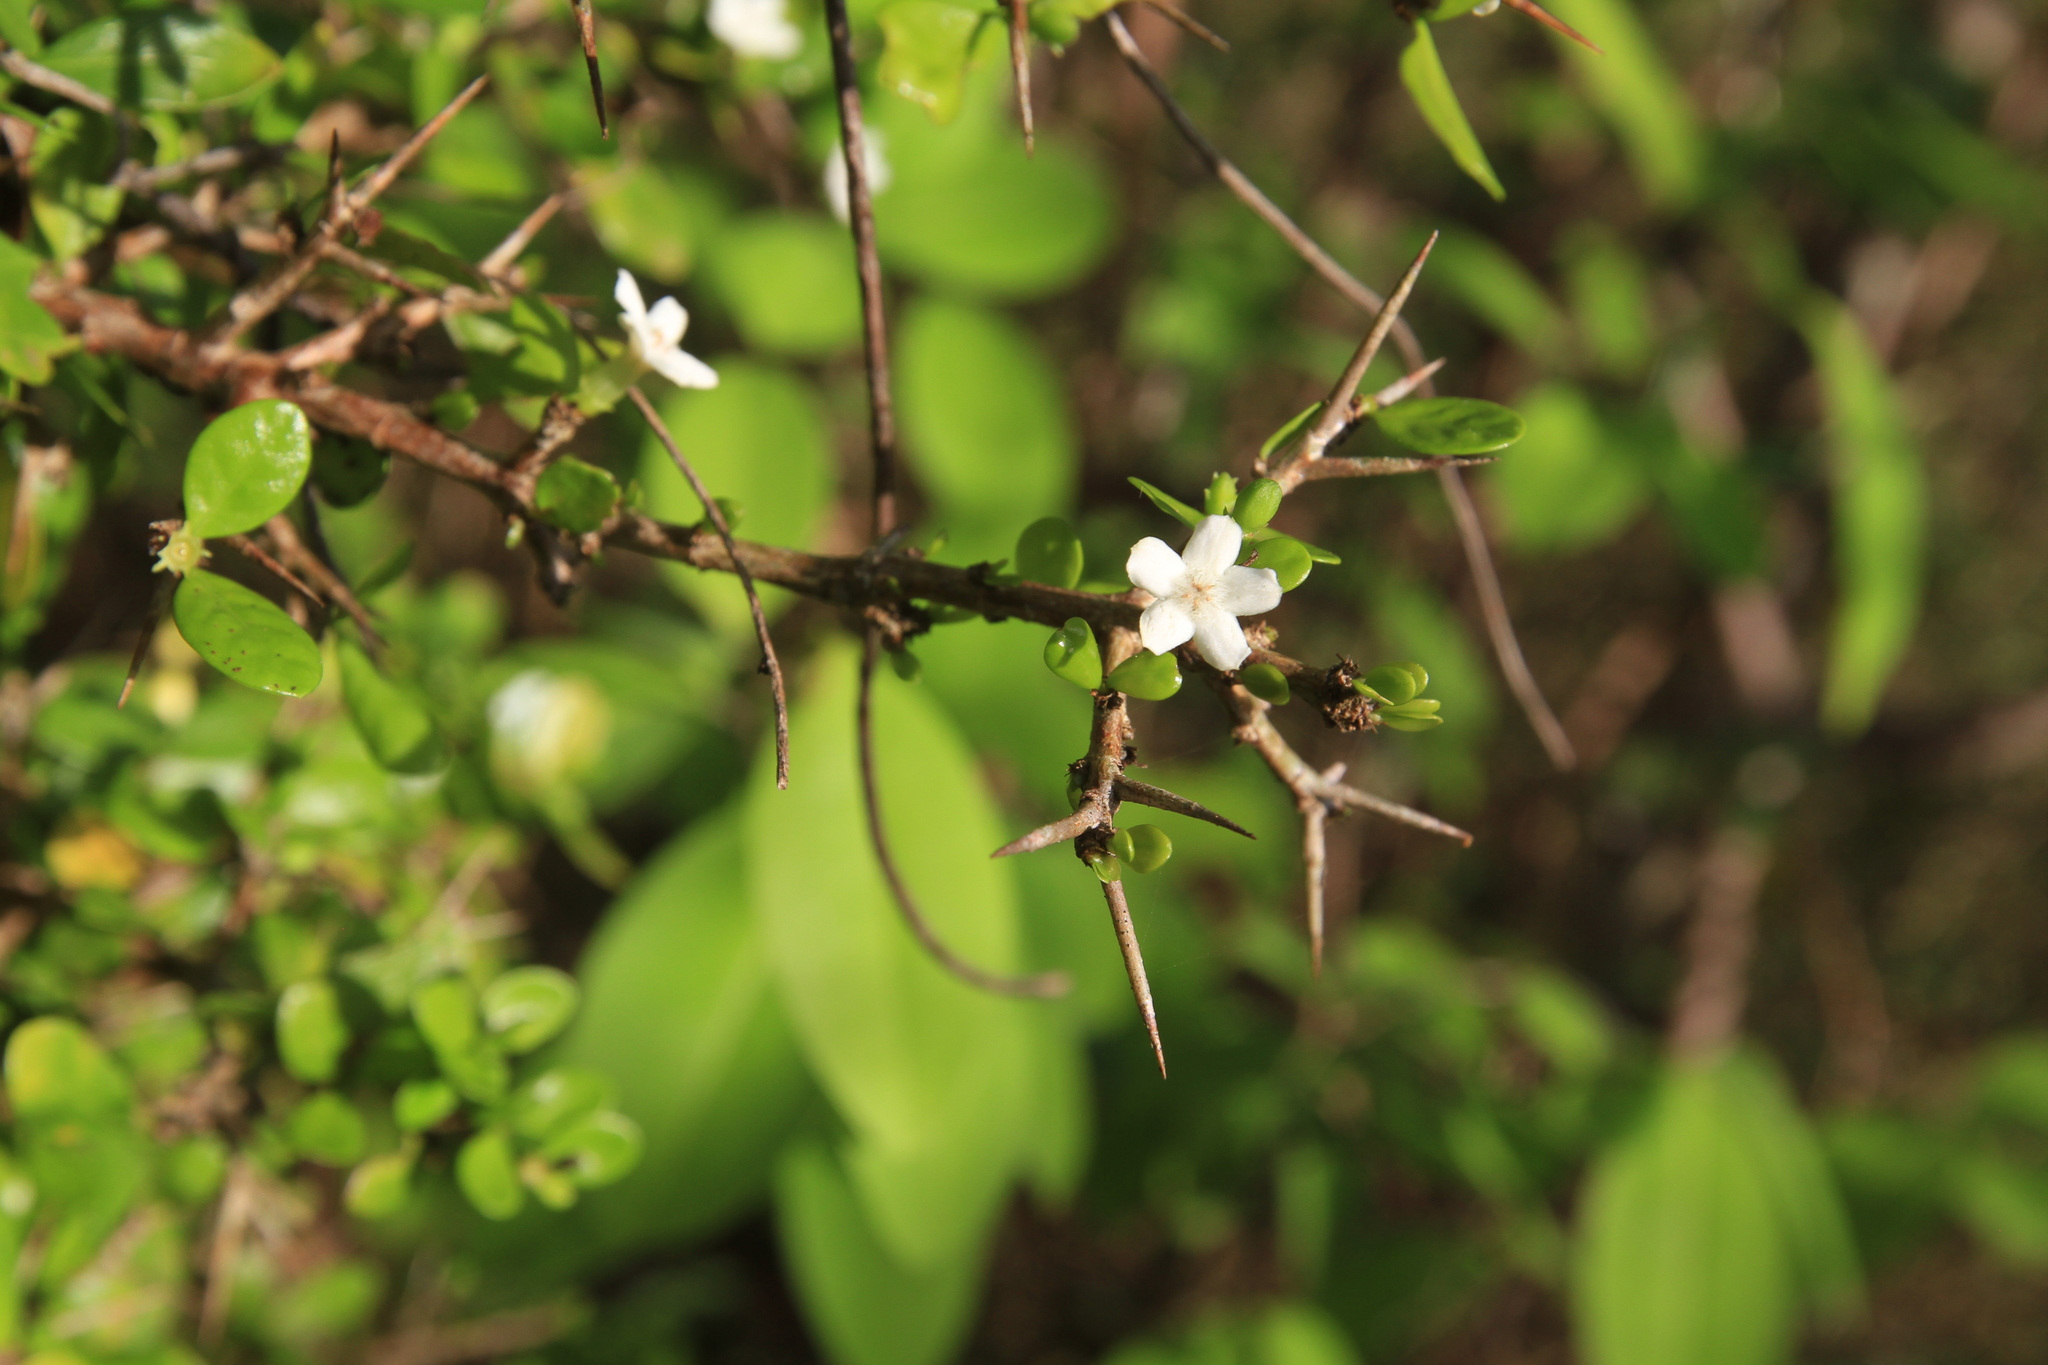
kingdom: Plantae
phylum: Tracheophyta
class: Magnoliopsida
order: Gentianales
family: Rubiaceae
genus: Randia
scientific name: Randia aculeata
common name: Inkberry
